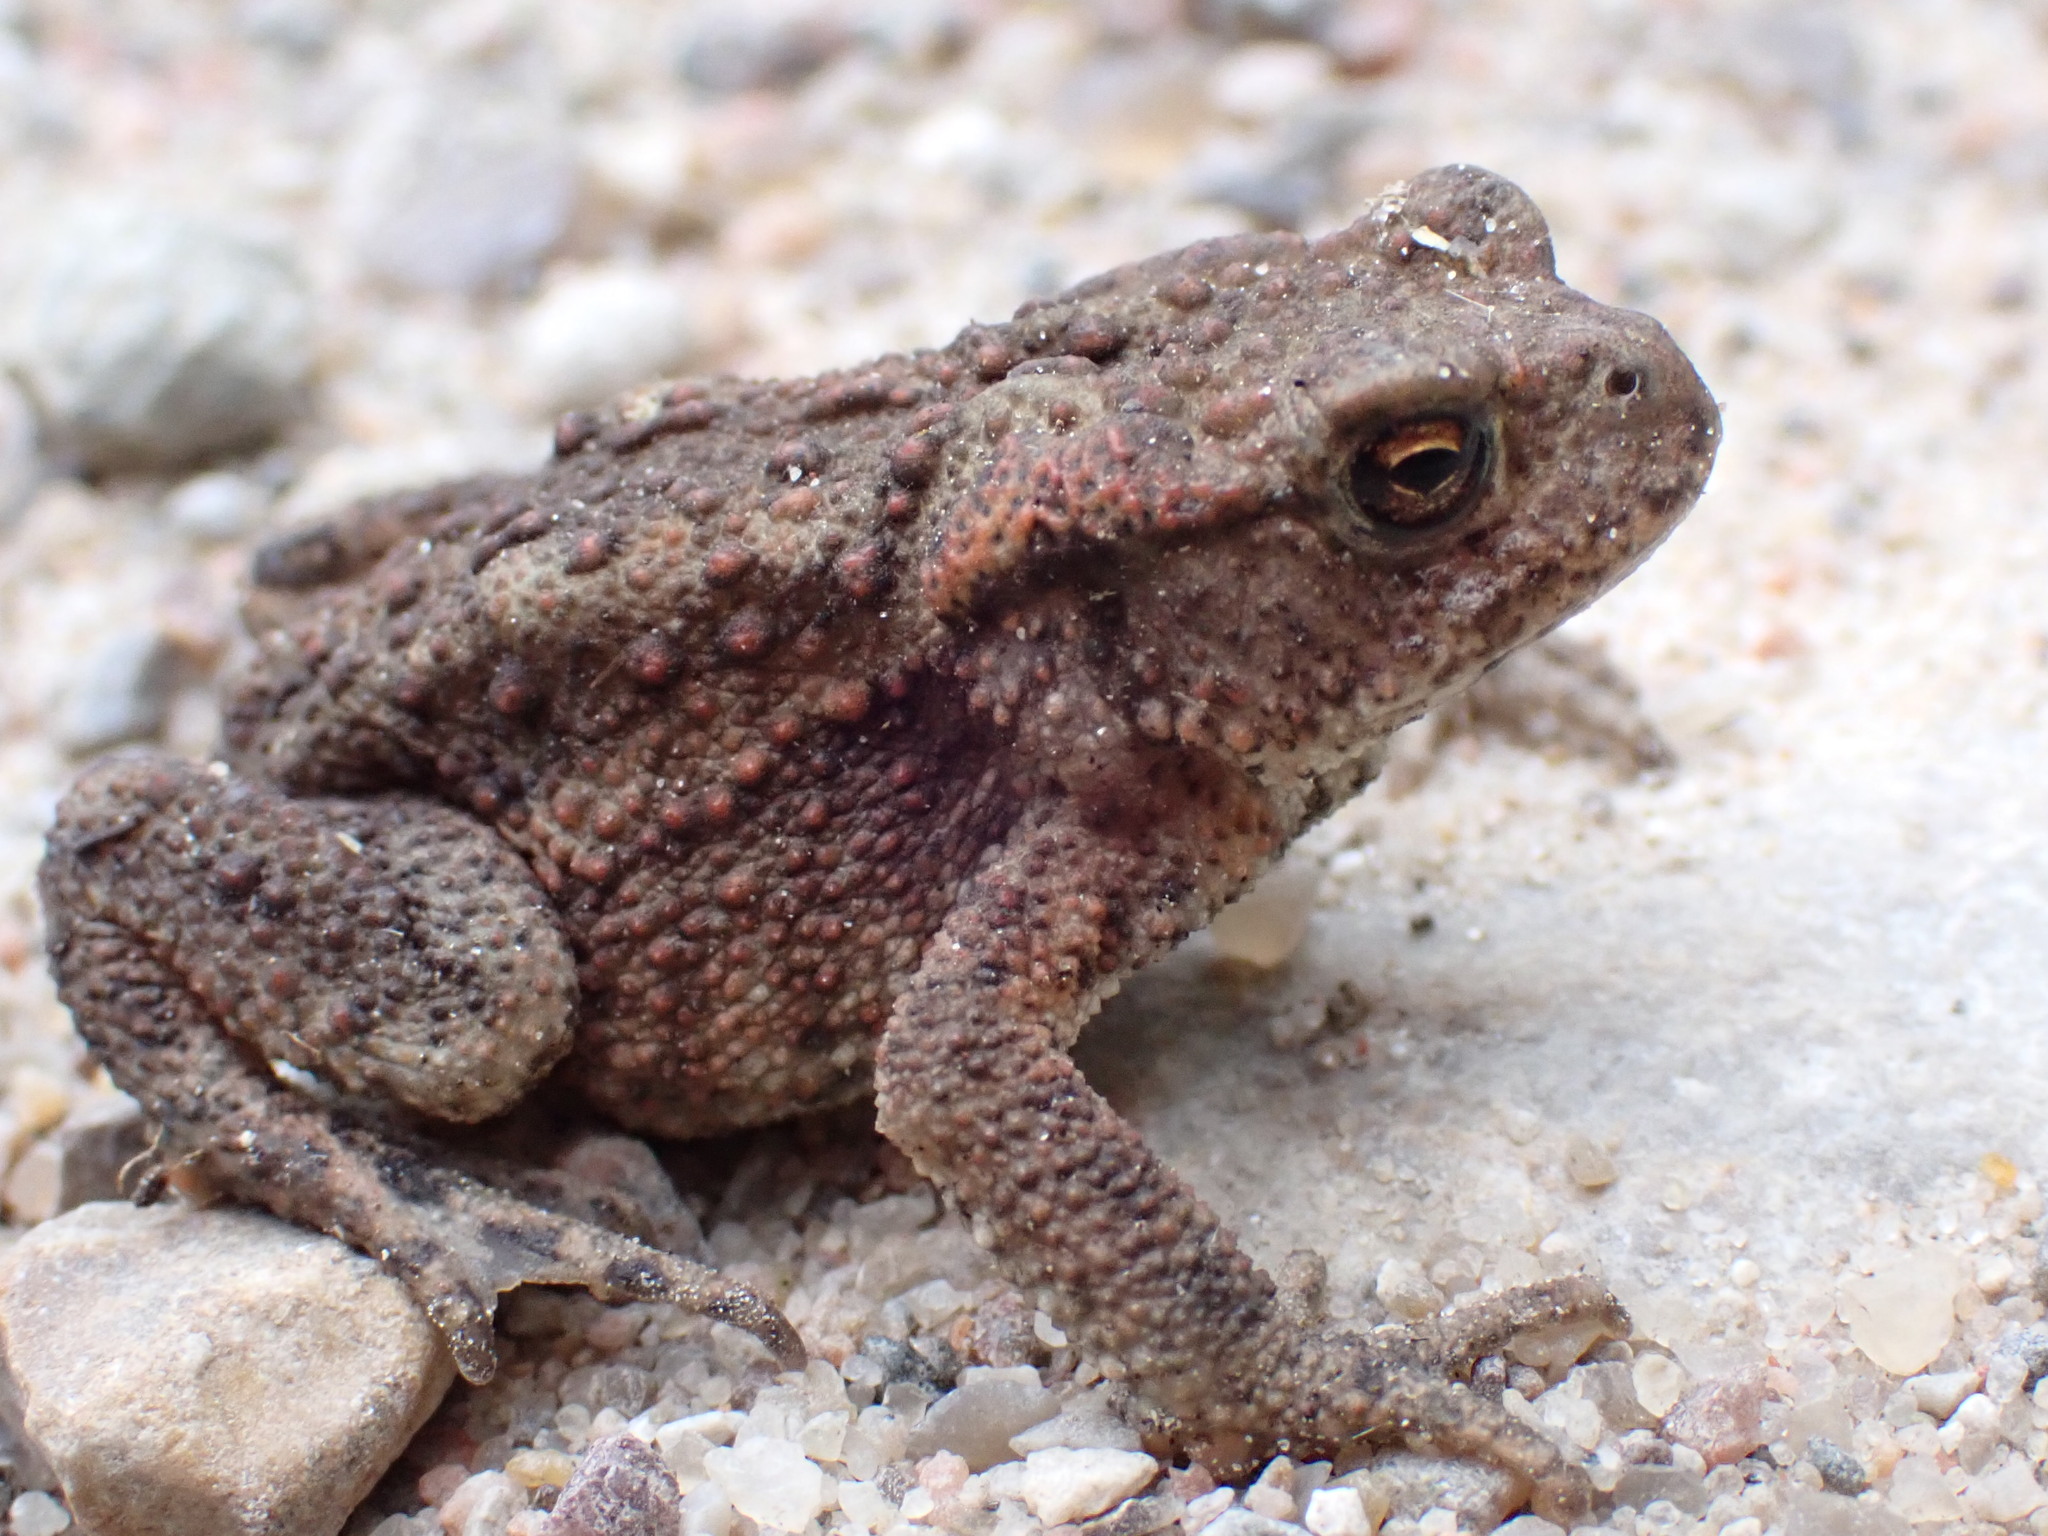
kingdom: Animalia
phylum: Chordata
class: Amphibia
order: Anura
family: Bufonidae
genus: Bufo
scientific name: Bufo bufo
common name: Common toad
